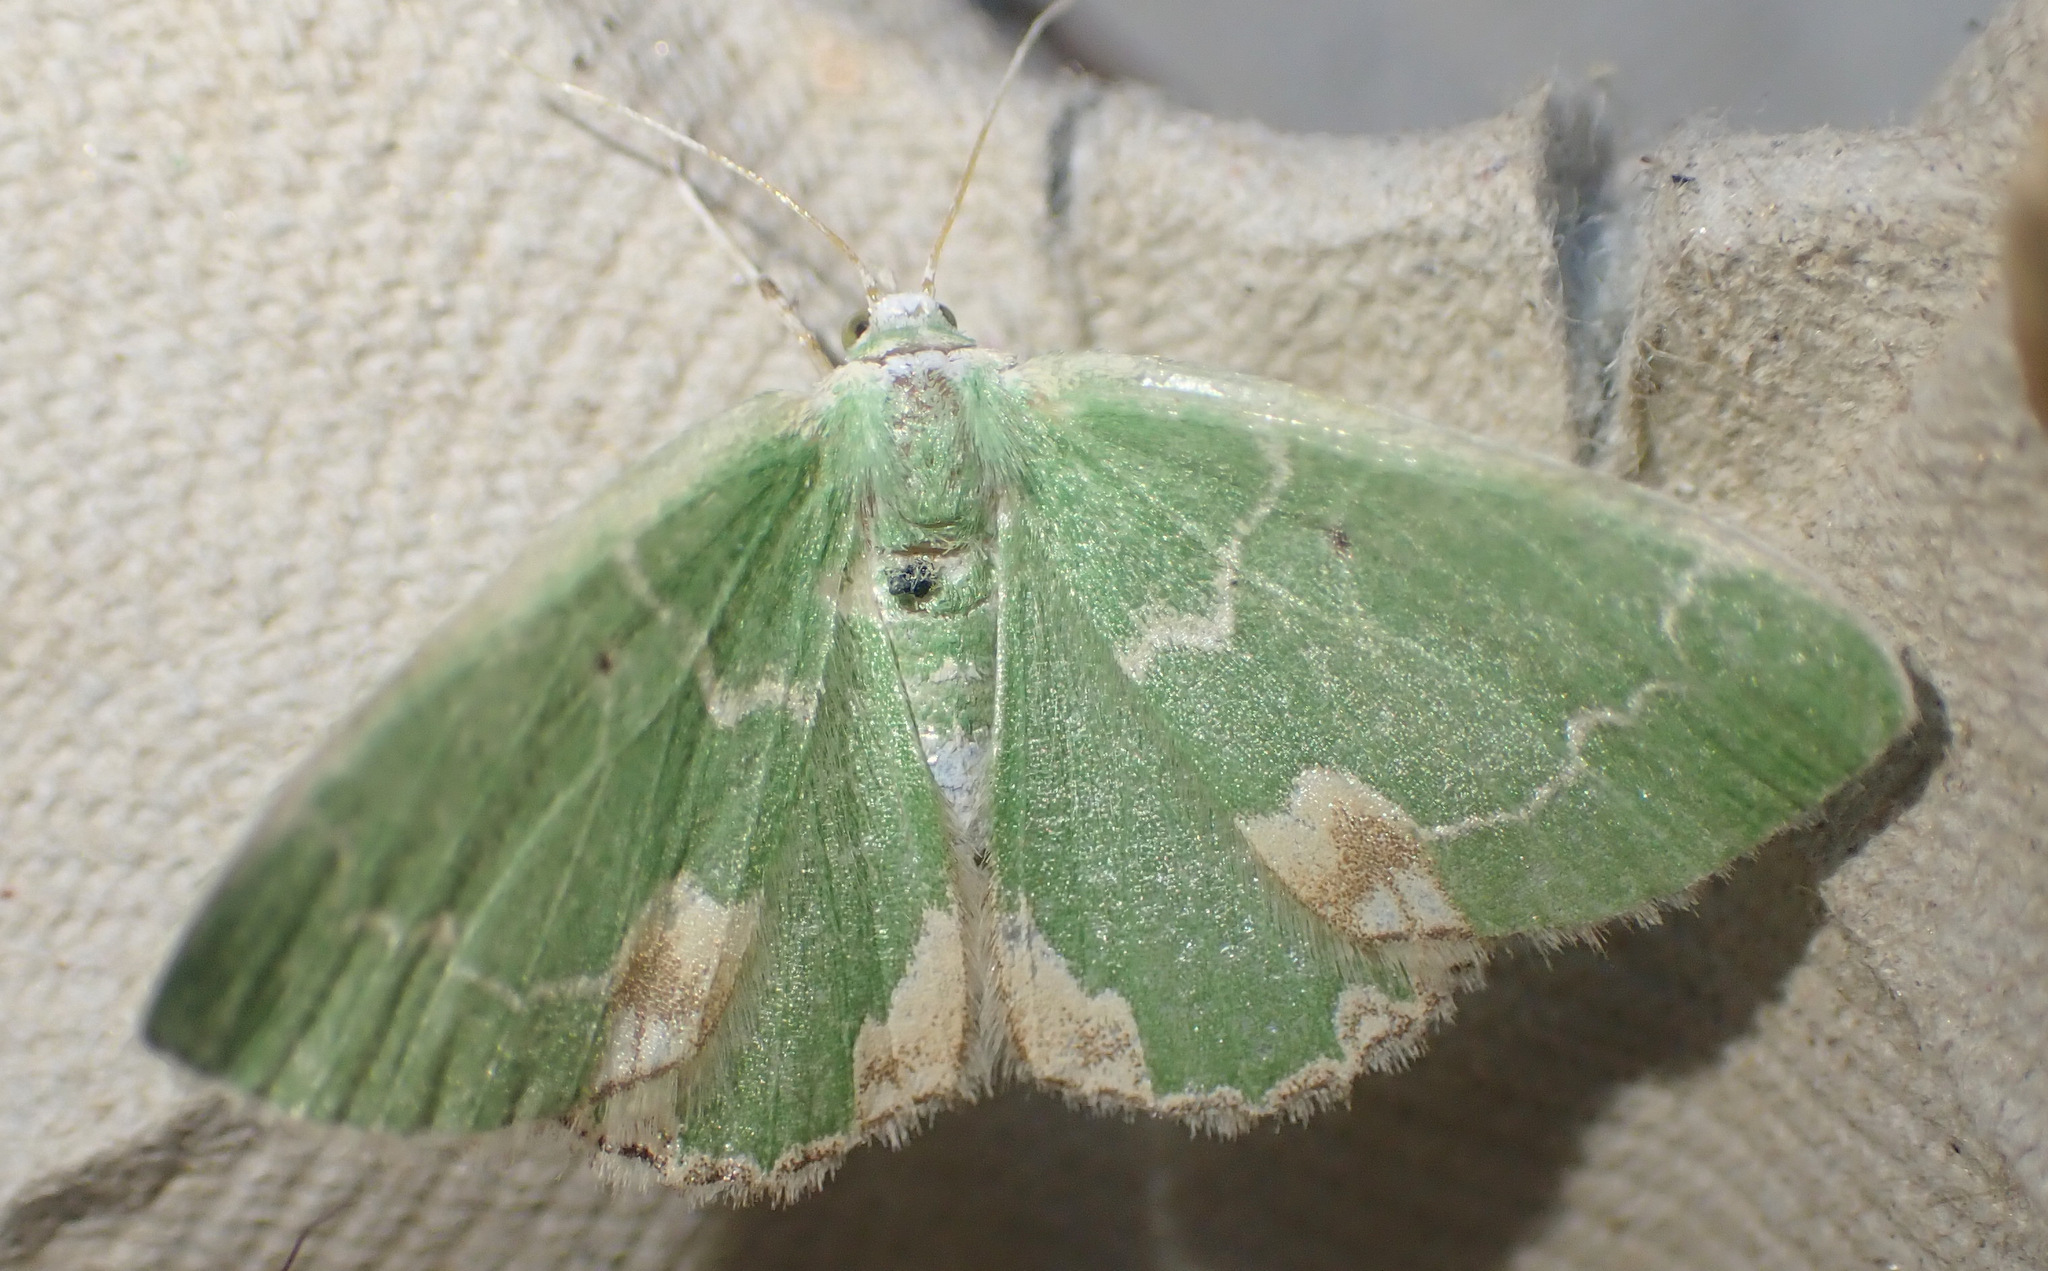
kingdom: Animalia
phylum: Arthropoda
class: Insecta
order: Lepidoptera
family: Geometridae
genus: Comibaena
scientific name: Comibaena bajularia
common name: Blotched emerald
